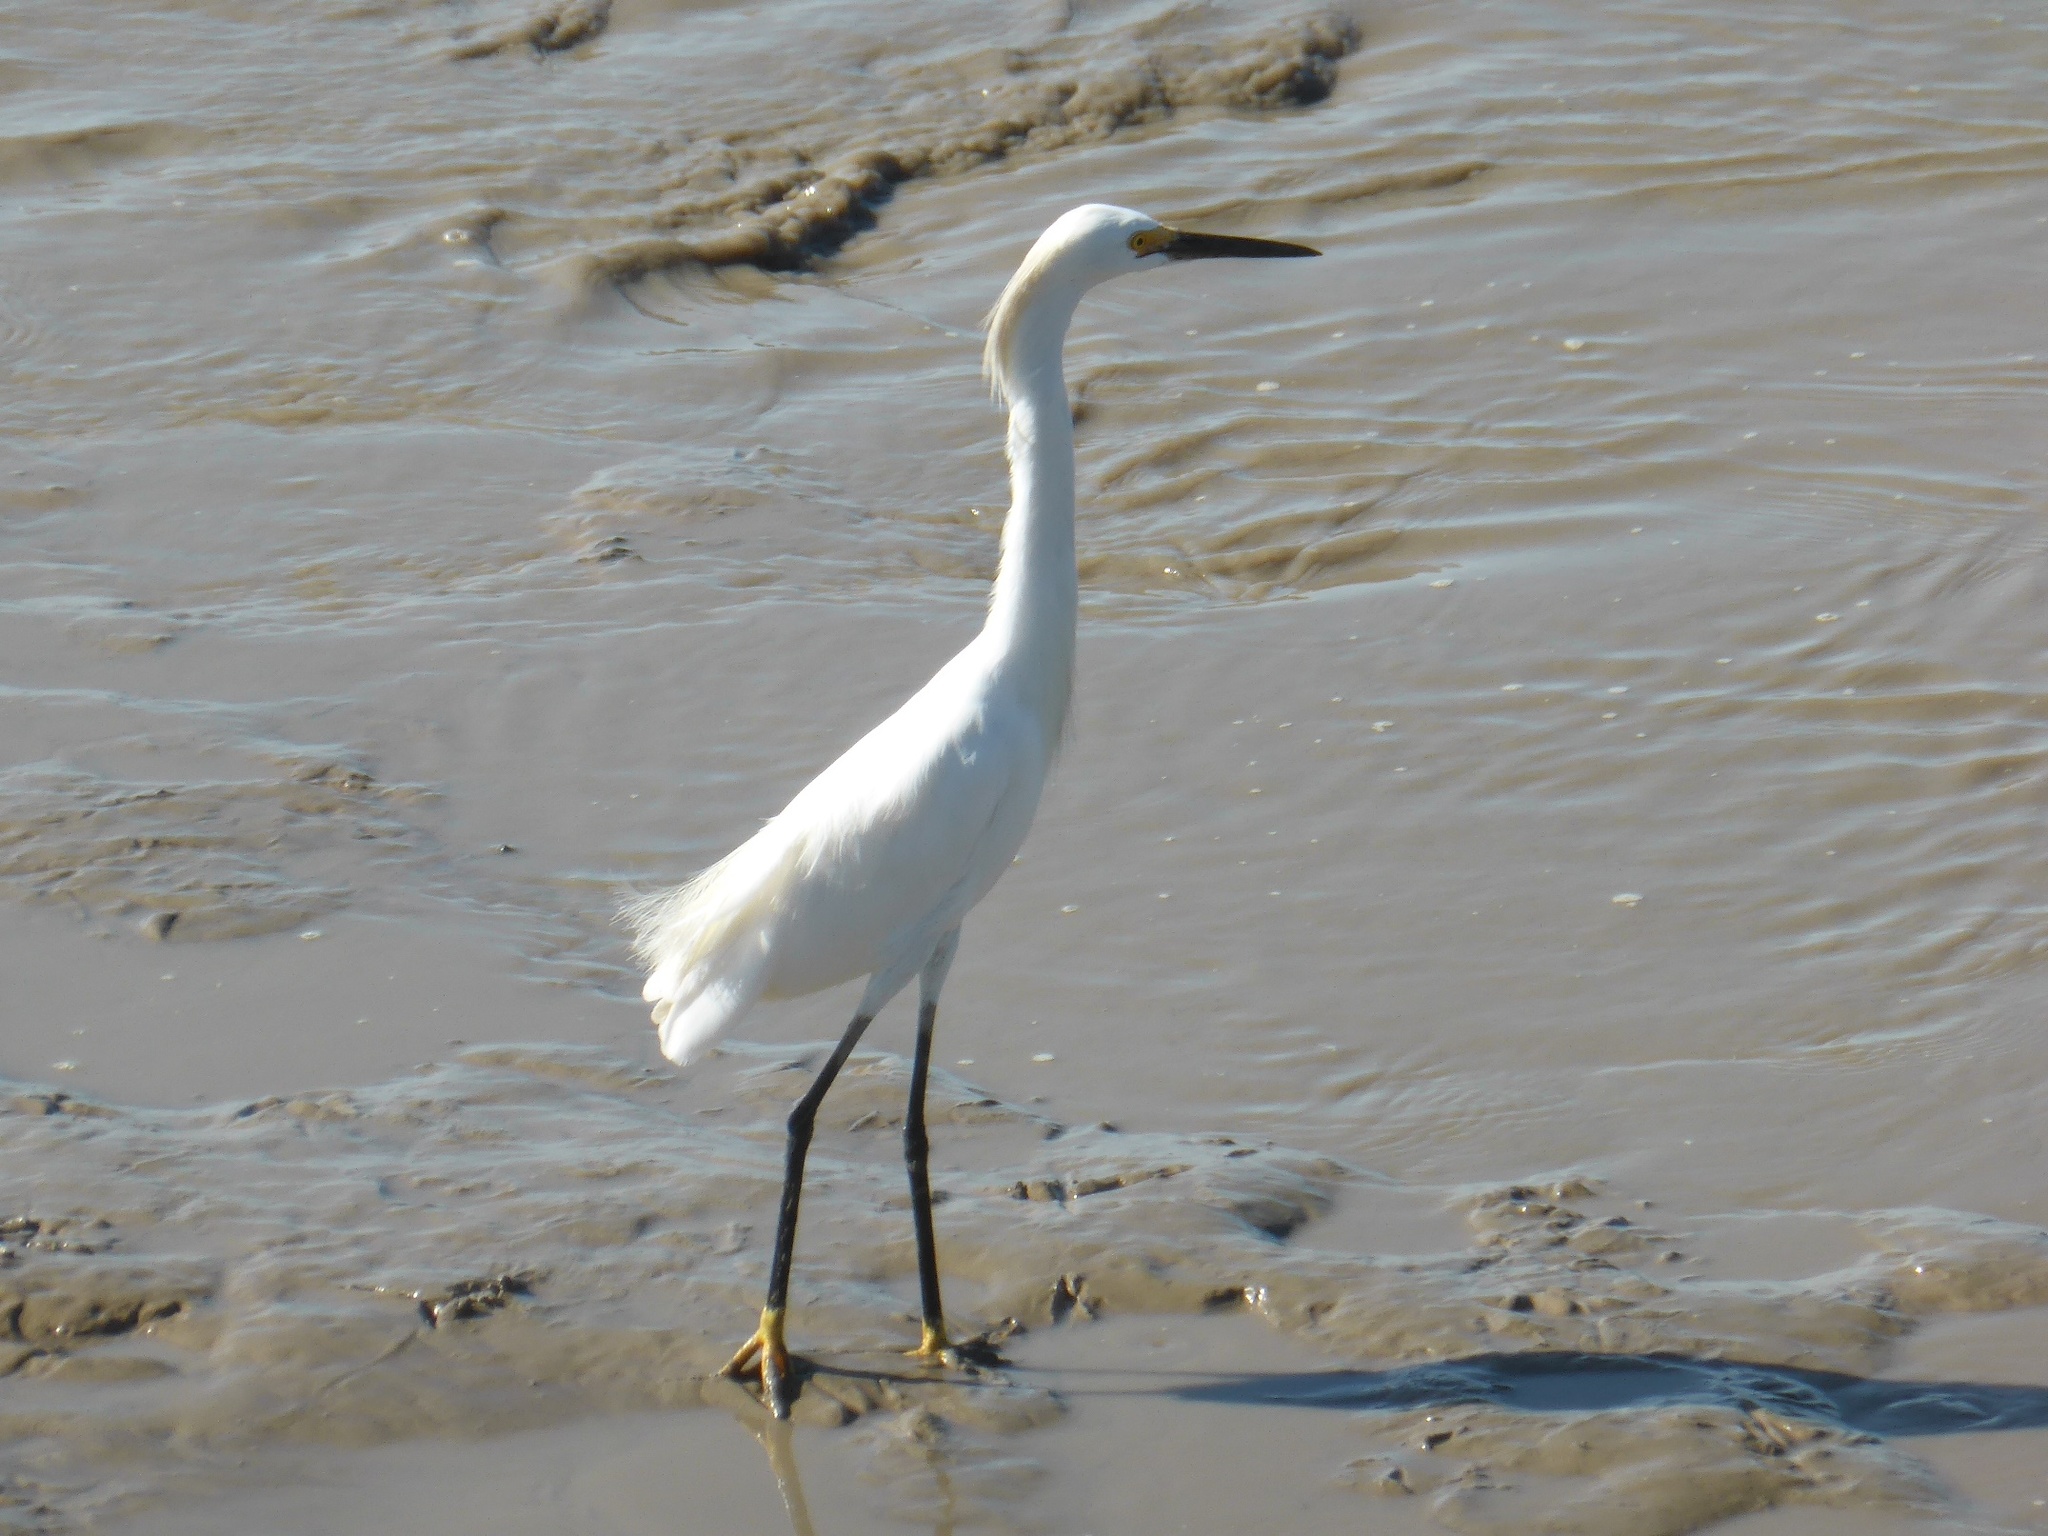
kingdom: Animalia
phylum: Chordata
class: Aves
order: Pelecaniformes
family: Ardeidae
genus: Egretta
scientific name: Egretta thula
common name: Snowy egret
